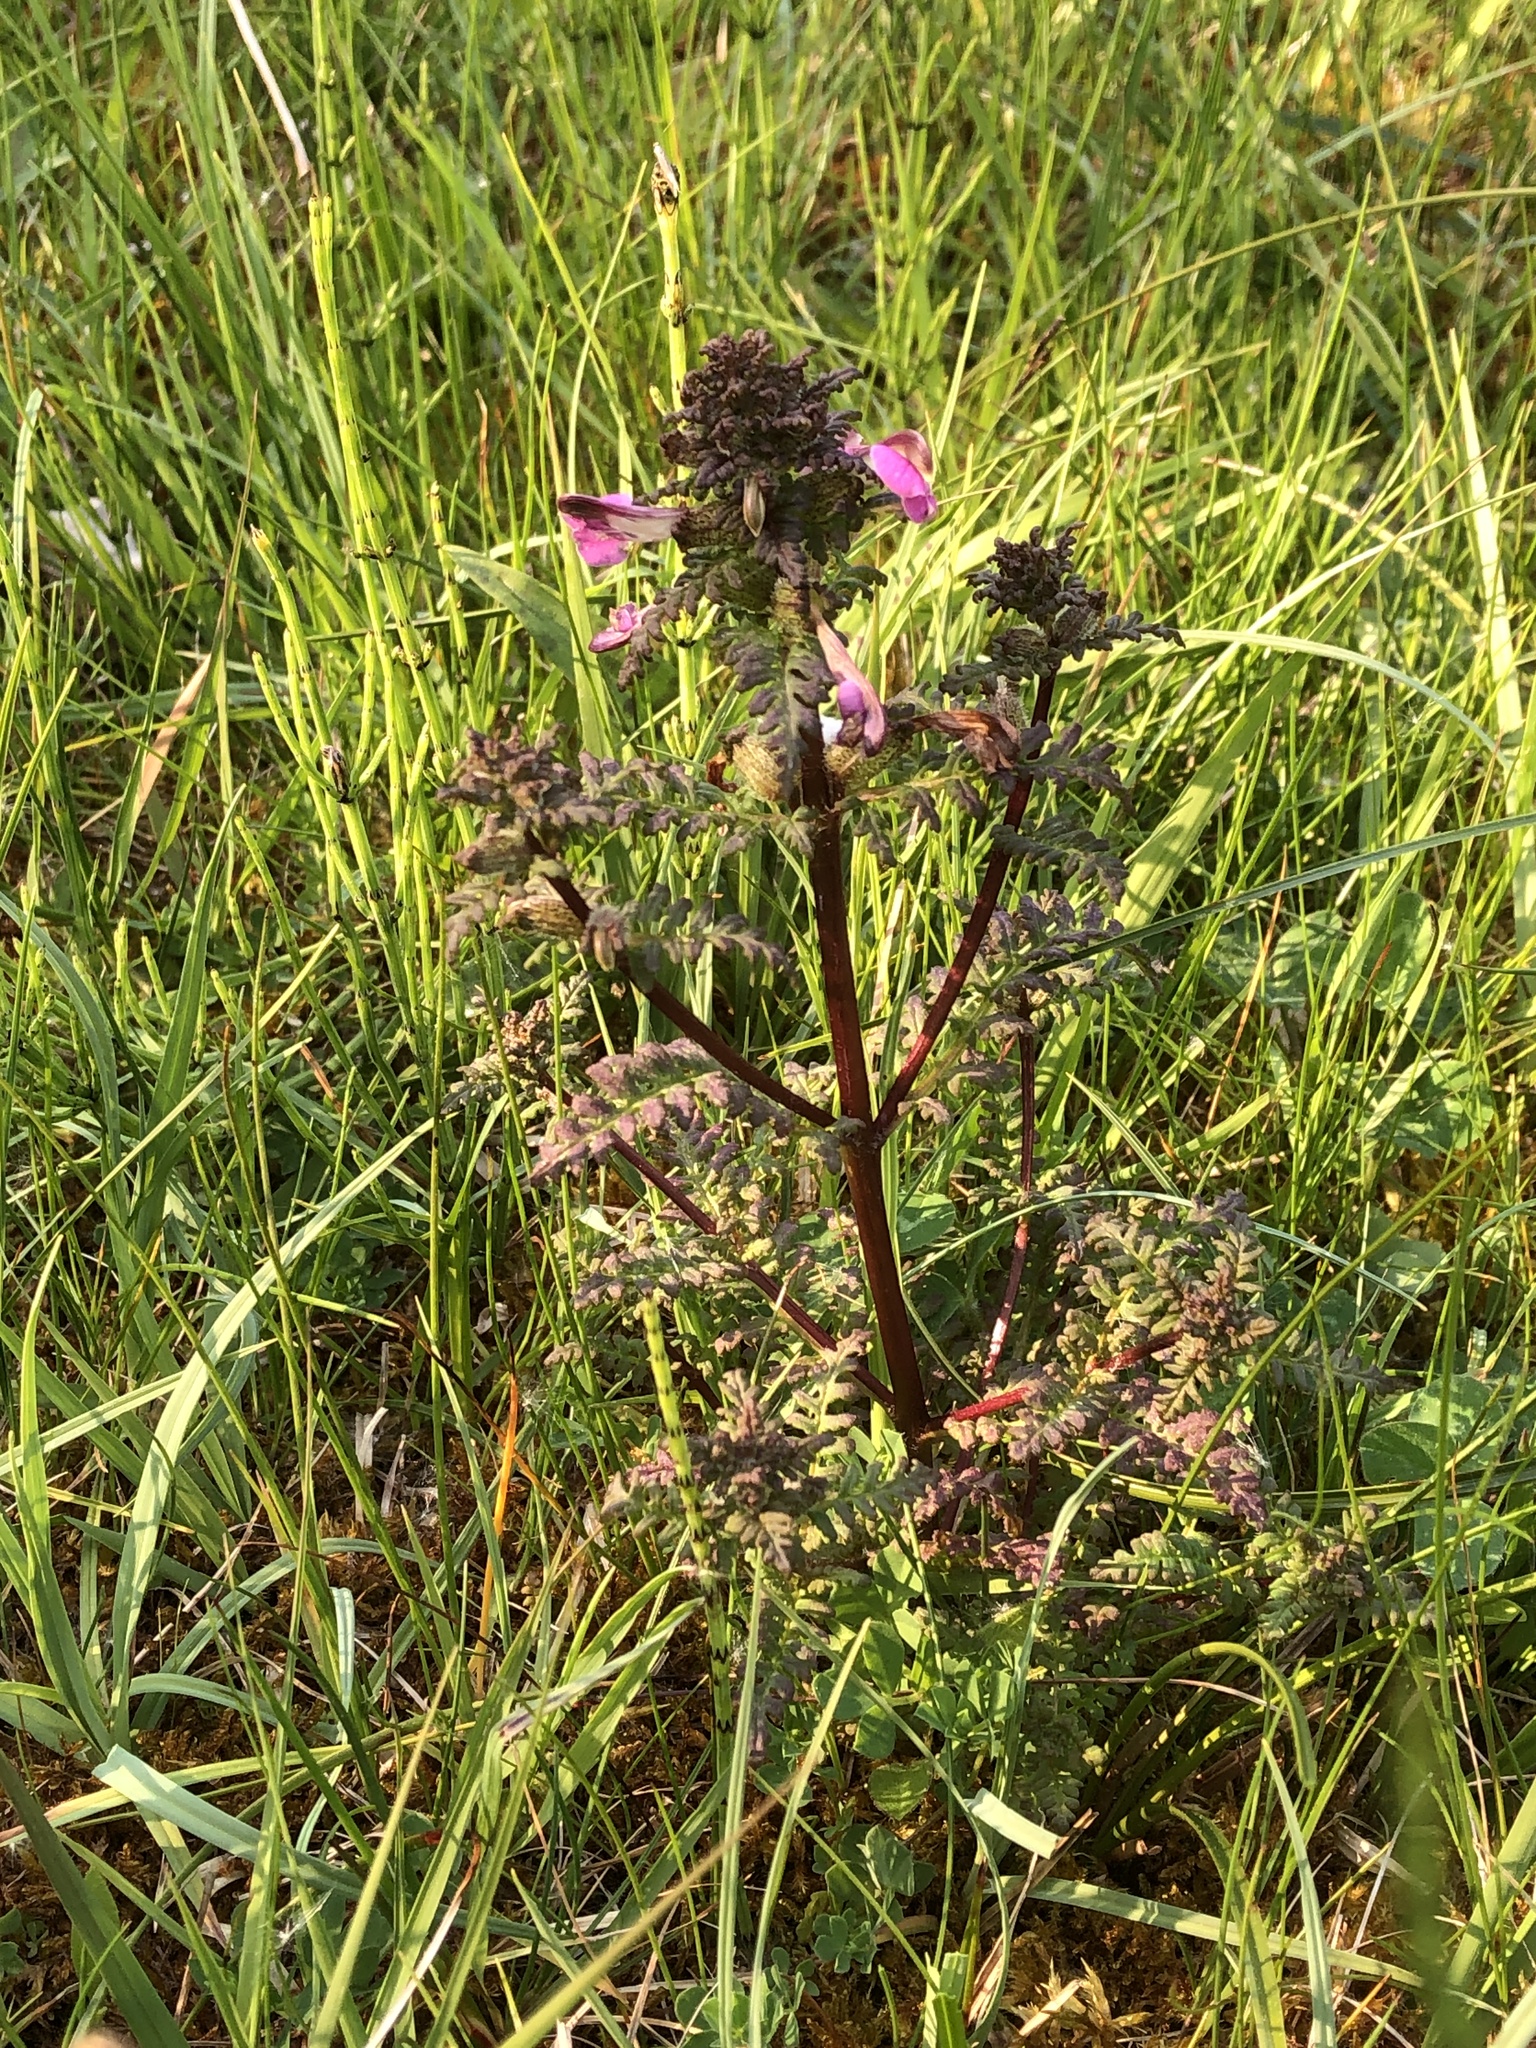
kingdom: Plantae
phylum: Tracheophyta
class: Magnoliopsida
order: Lamiales
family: Orobanchaceae
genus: Pedicularis
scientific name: Pedicularis palustris
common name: Marsh lousewort
